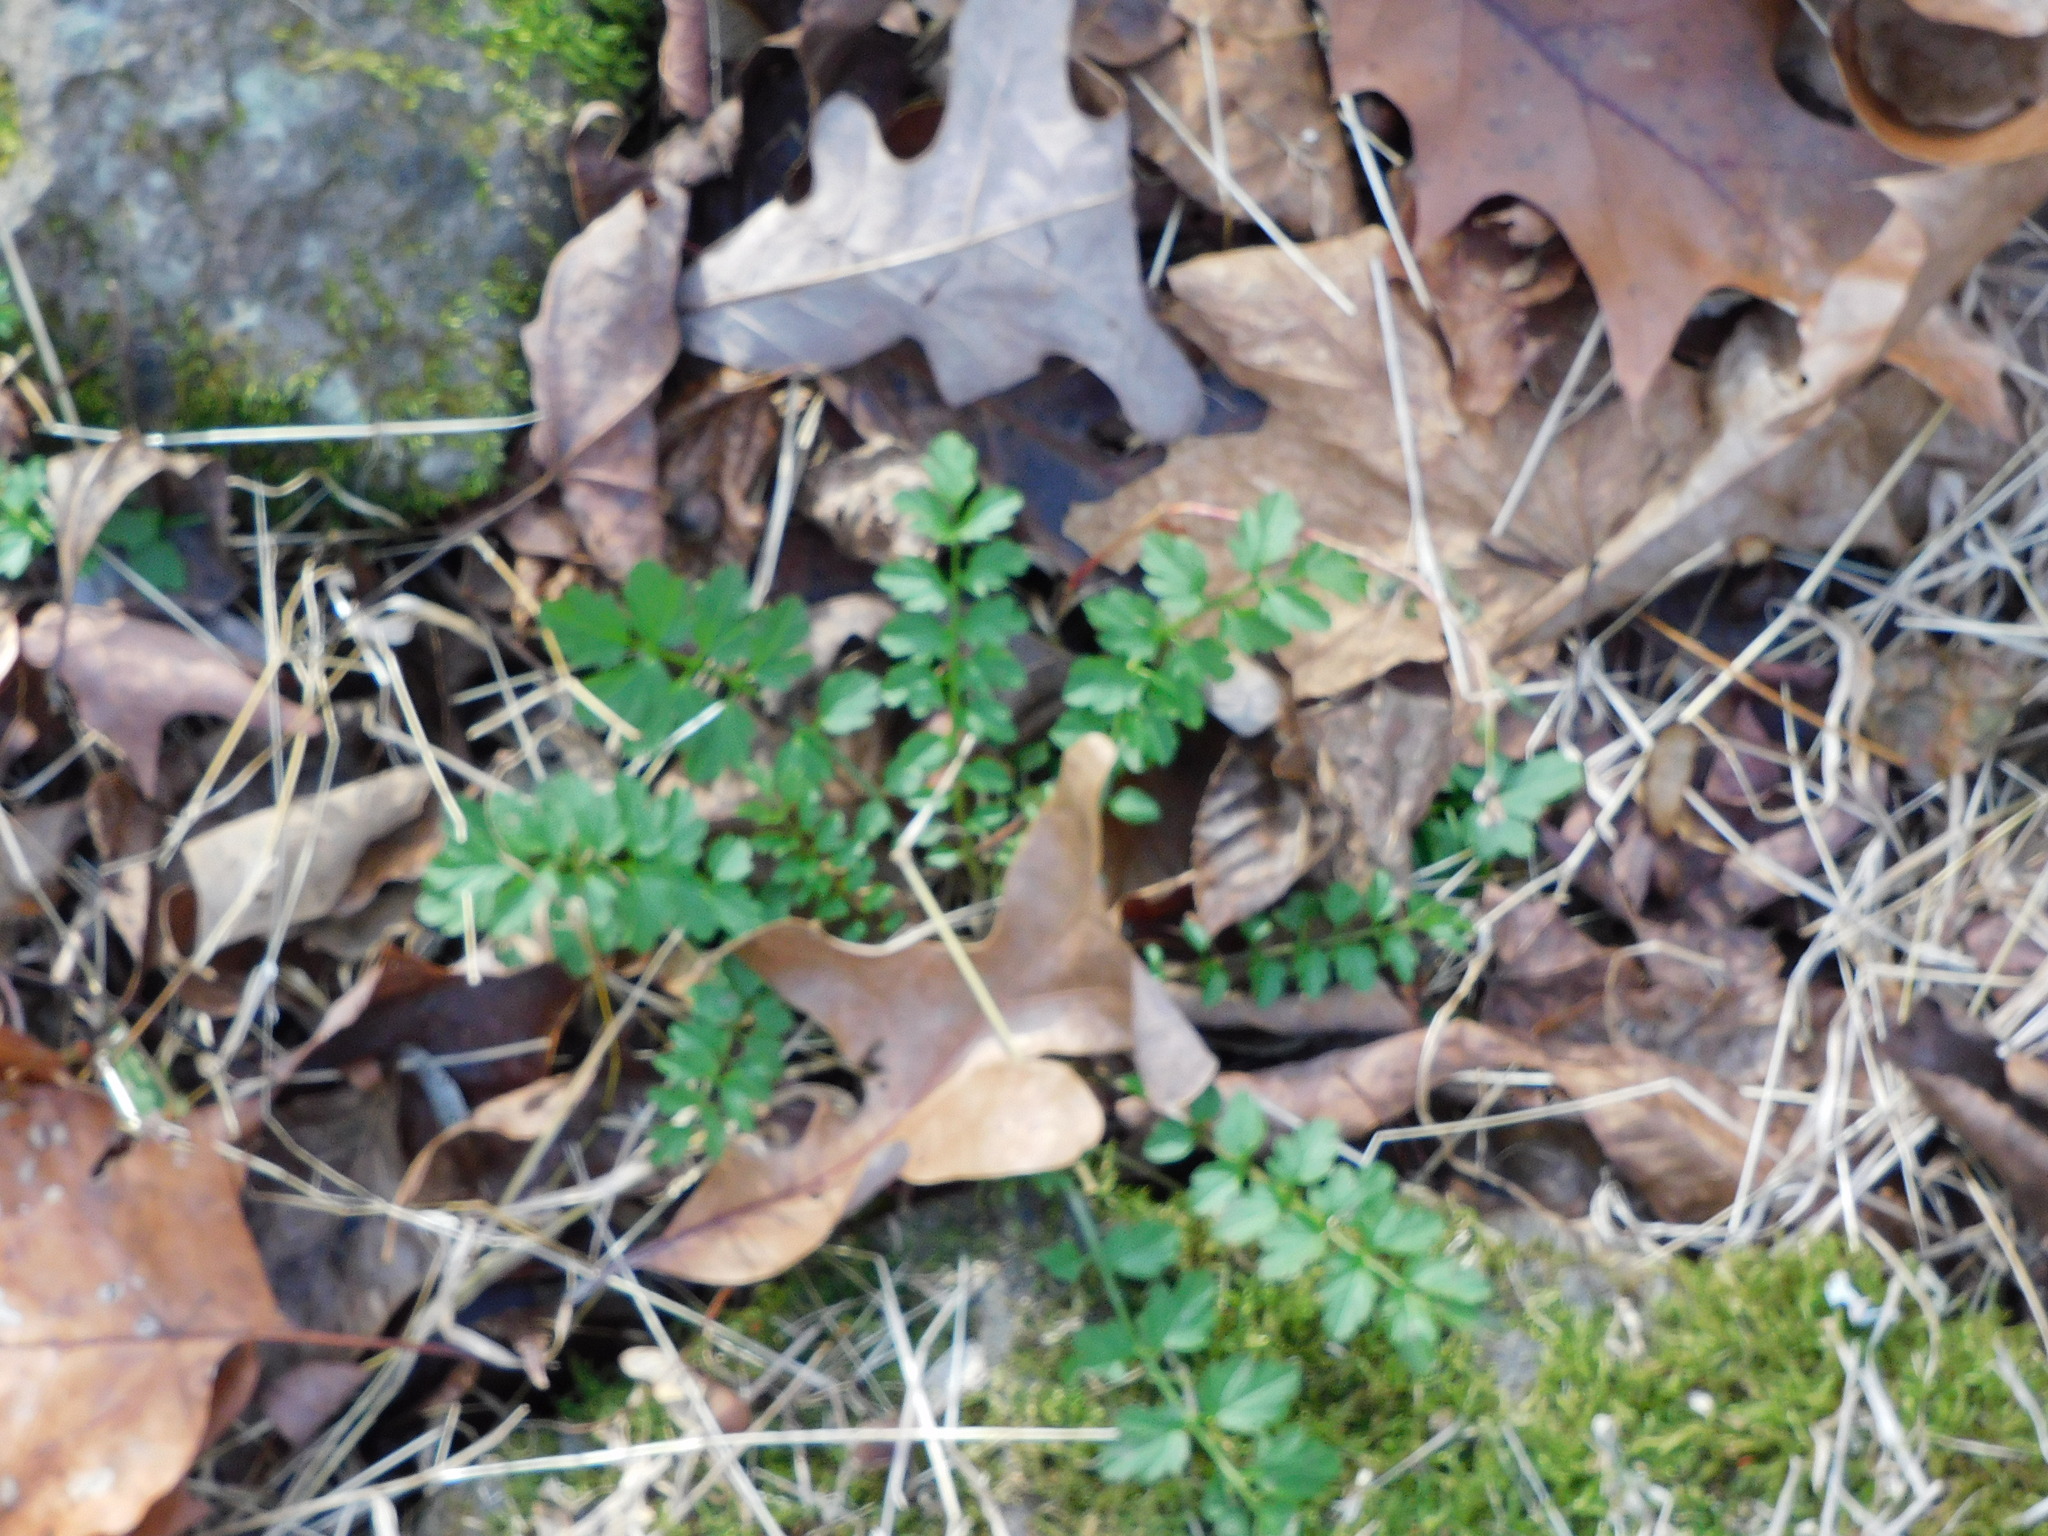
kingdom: Plantae
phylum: Tracheophyta
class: Magnoliopsida
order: Brassicales
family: Brassicaceae
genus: Cardamine
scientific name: Cardamine impatiens
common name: Narrow-leaved bitter-cress
